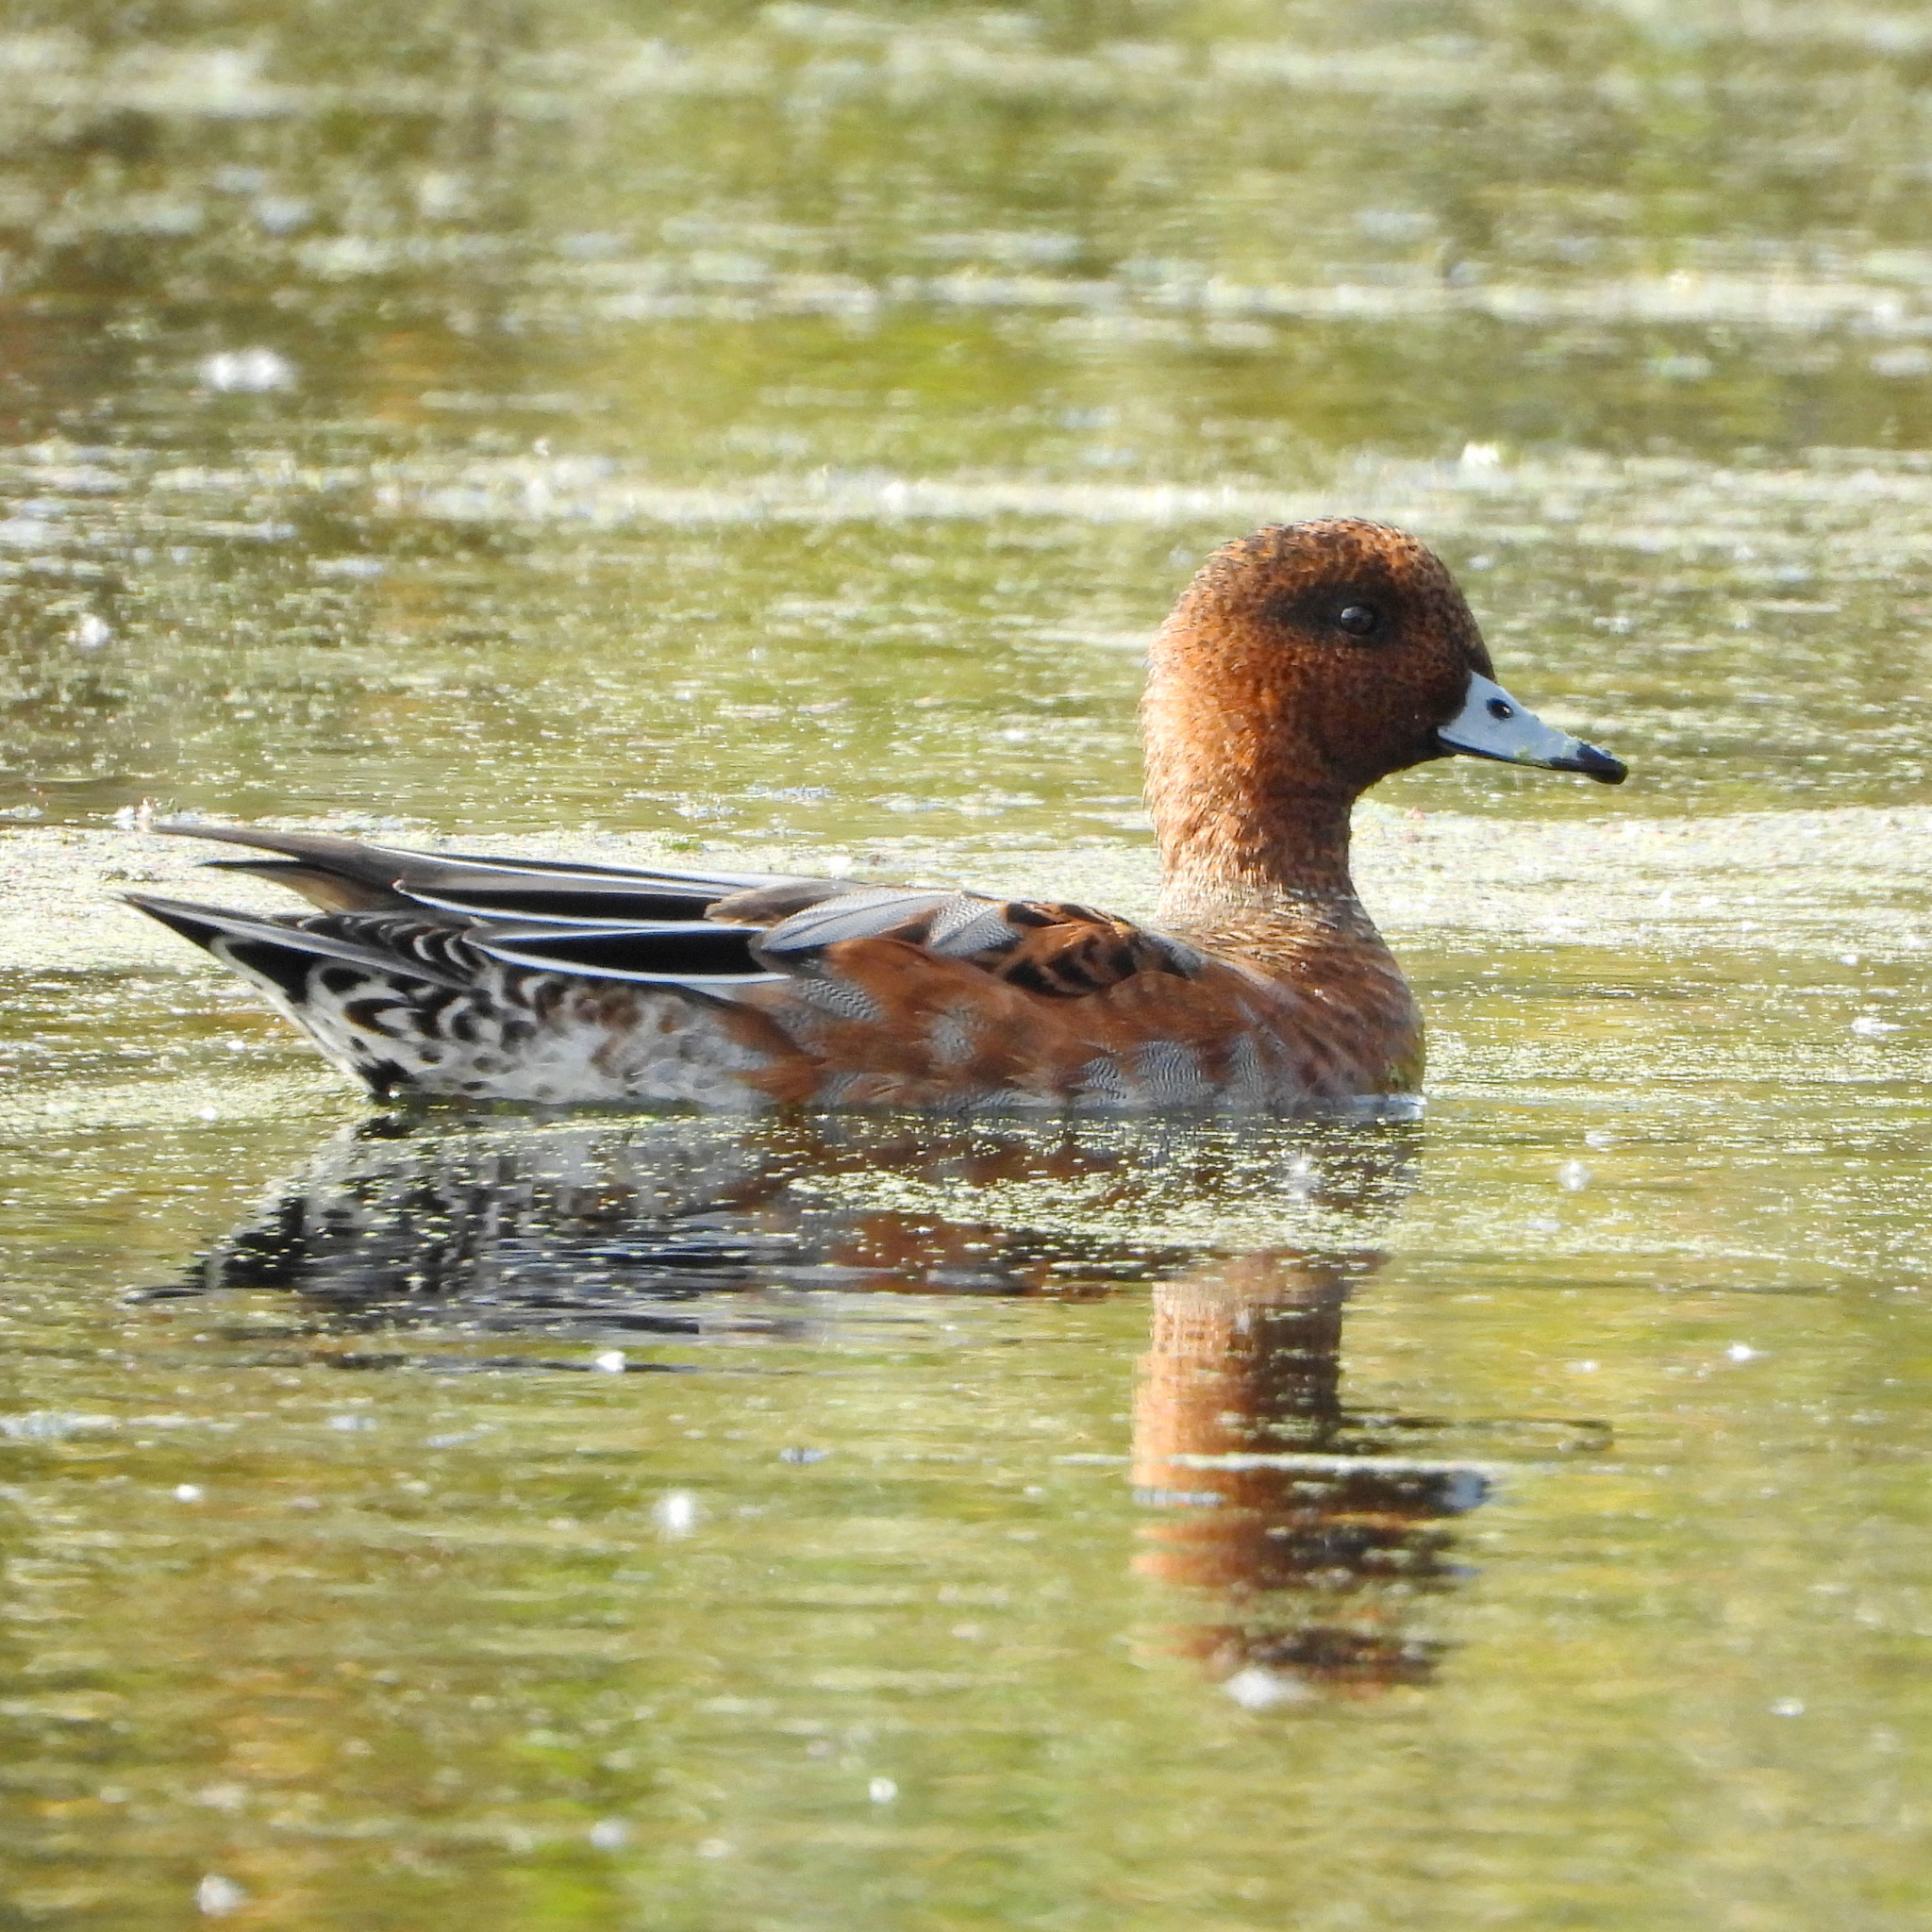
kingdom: Animalia
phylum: Chordata
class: Aves
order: Anseriformes
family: Anatidae
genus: Mareca
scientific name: Mareca penelope
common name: Eurasian wigeon
